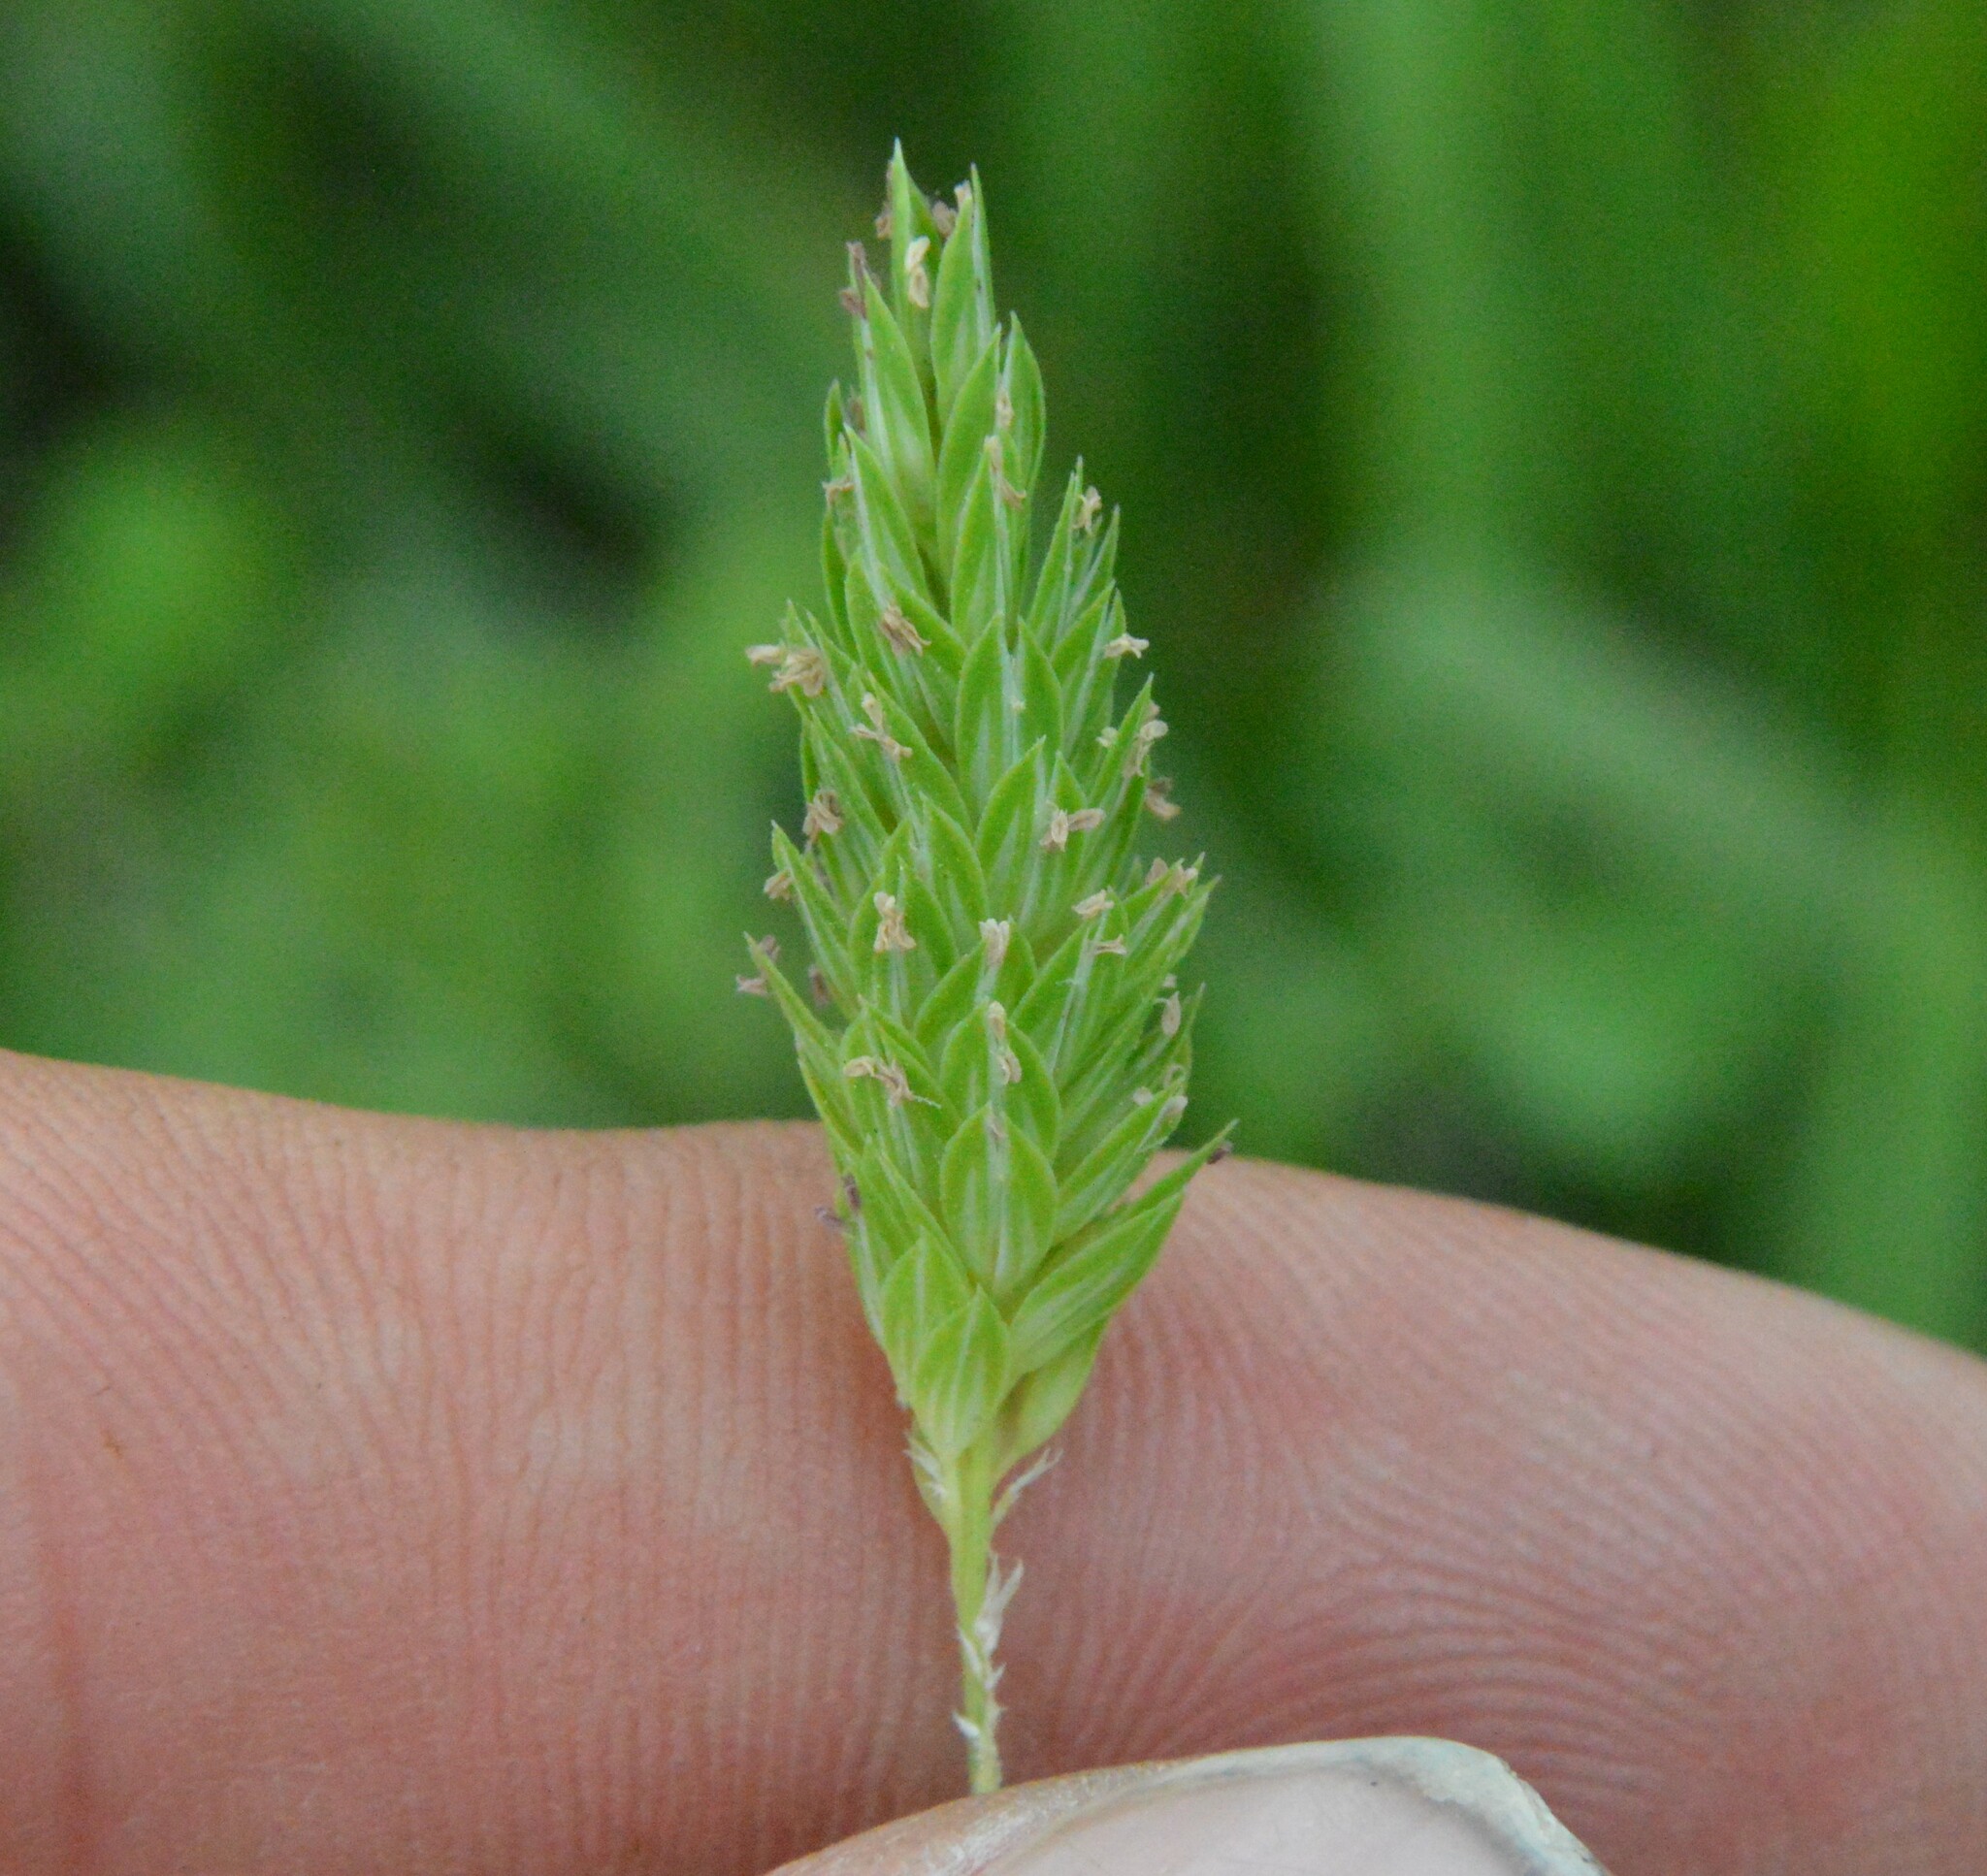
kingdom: Plantae
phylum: Tracheophyta
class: Liliopsida
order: Poales
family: Poaceae
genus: Phalaris
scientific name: Phalaris caroliniana
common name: May grass
